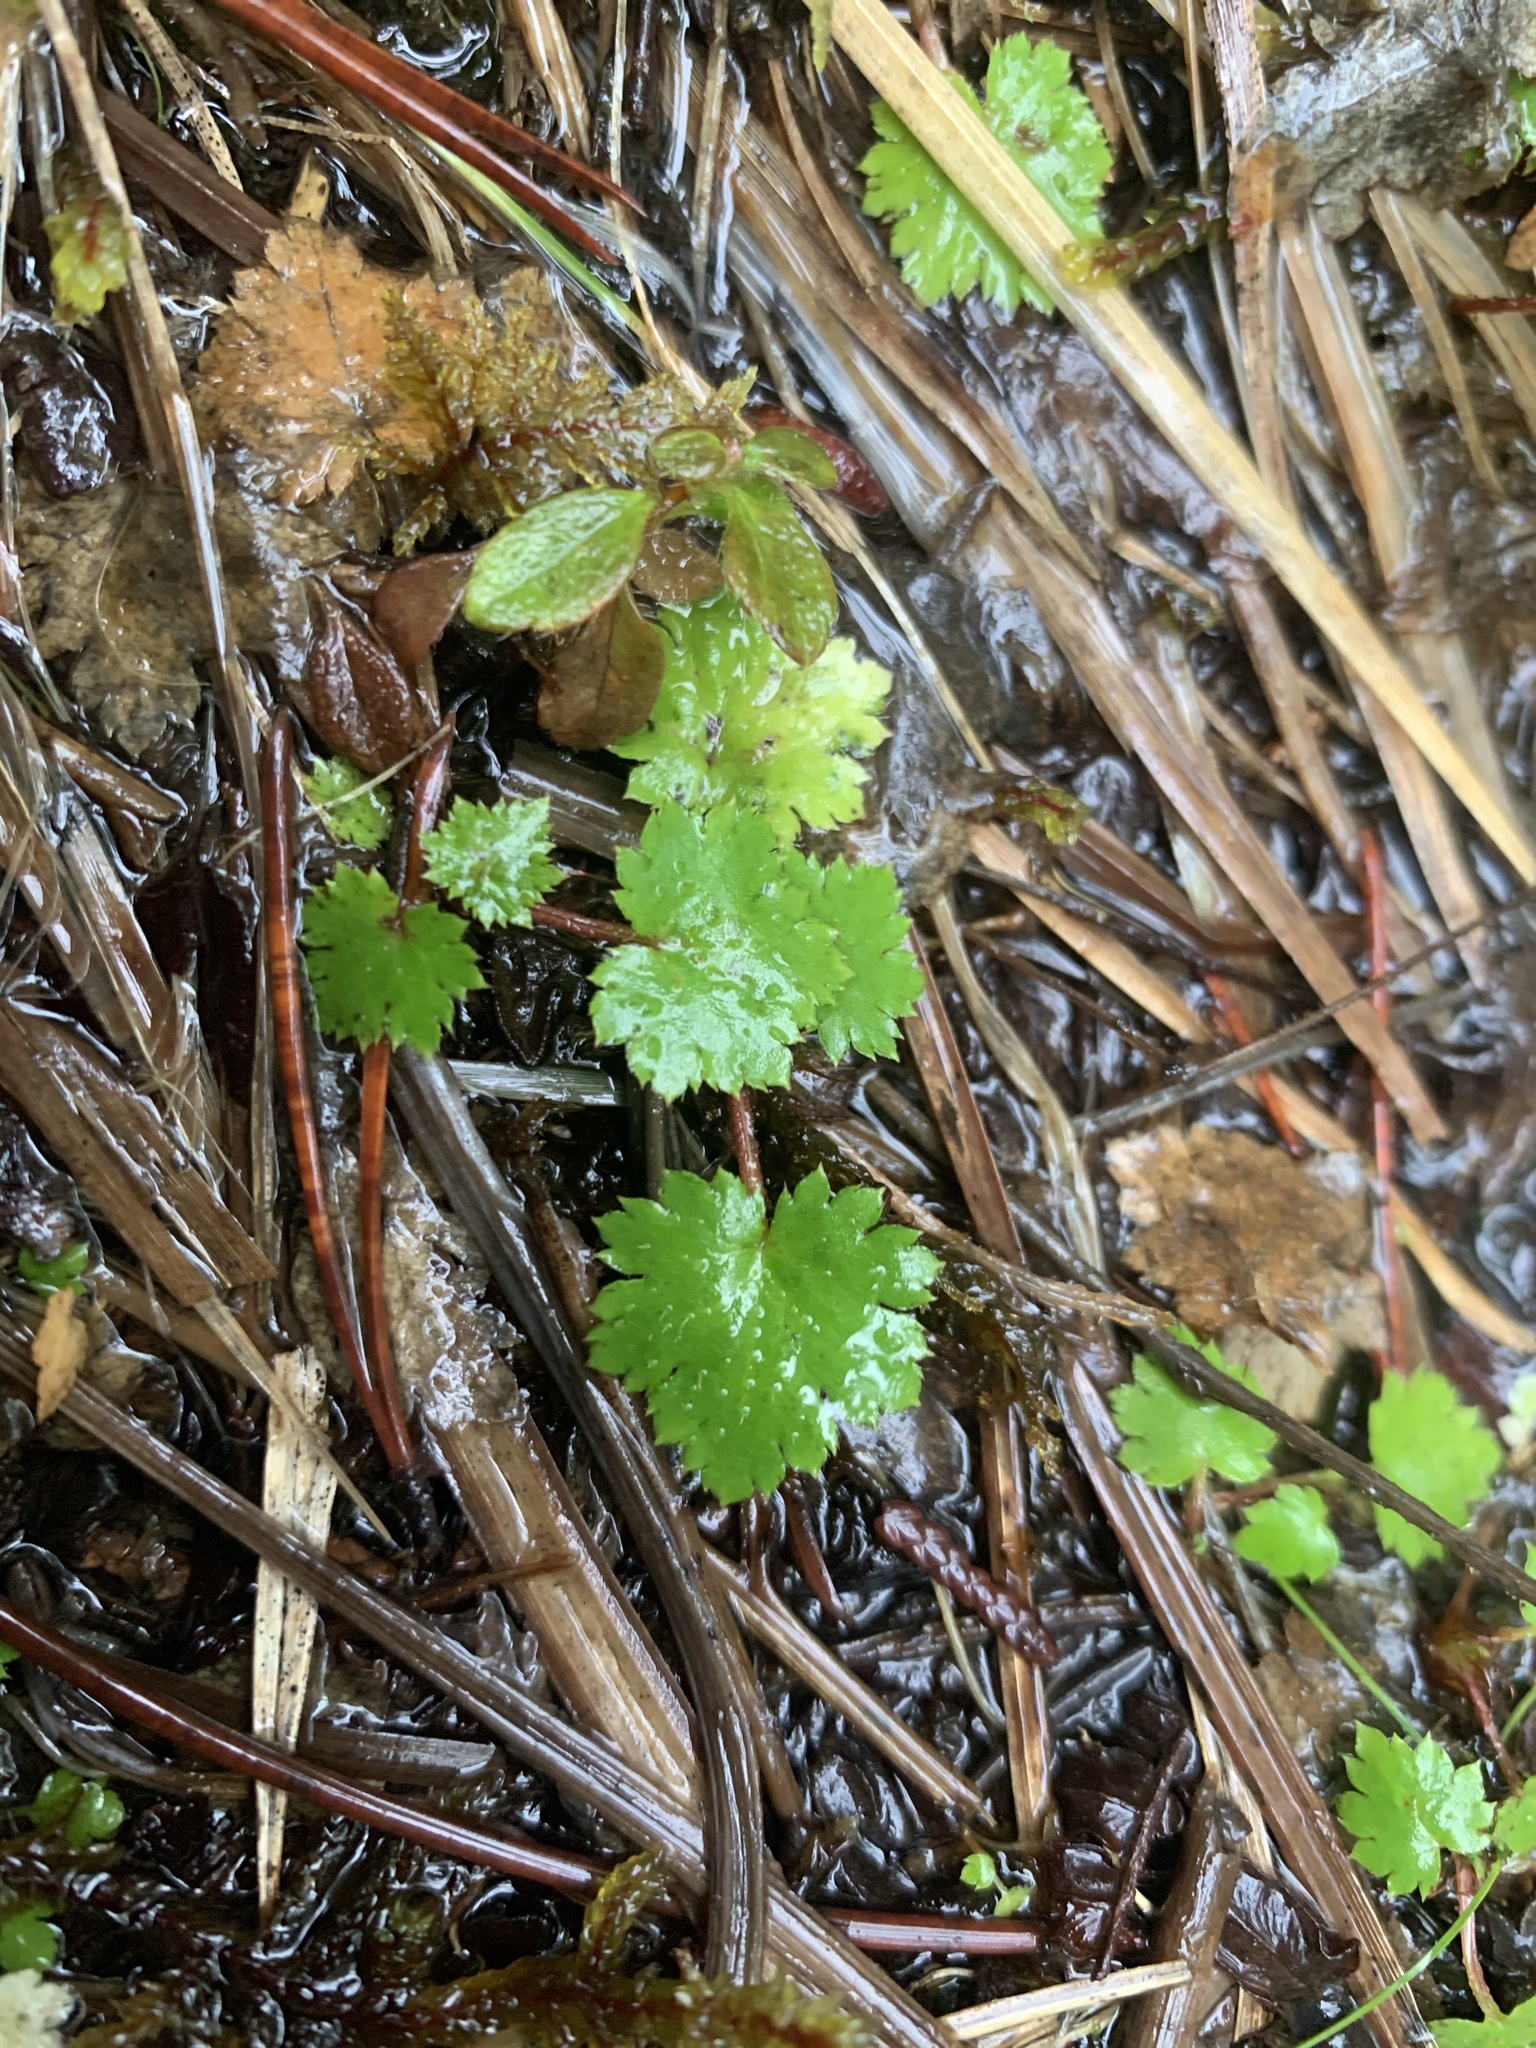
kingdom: Plantae
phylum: Tracheophyta
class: Magnoliopsida
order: Saxifragales
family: Saxifragaceae
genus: Boykinia
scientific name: Boykinia occidentalis
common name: Coast boykinia
